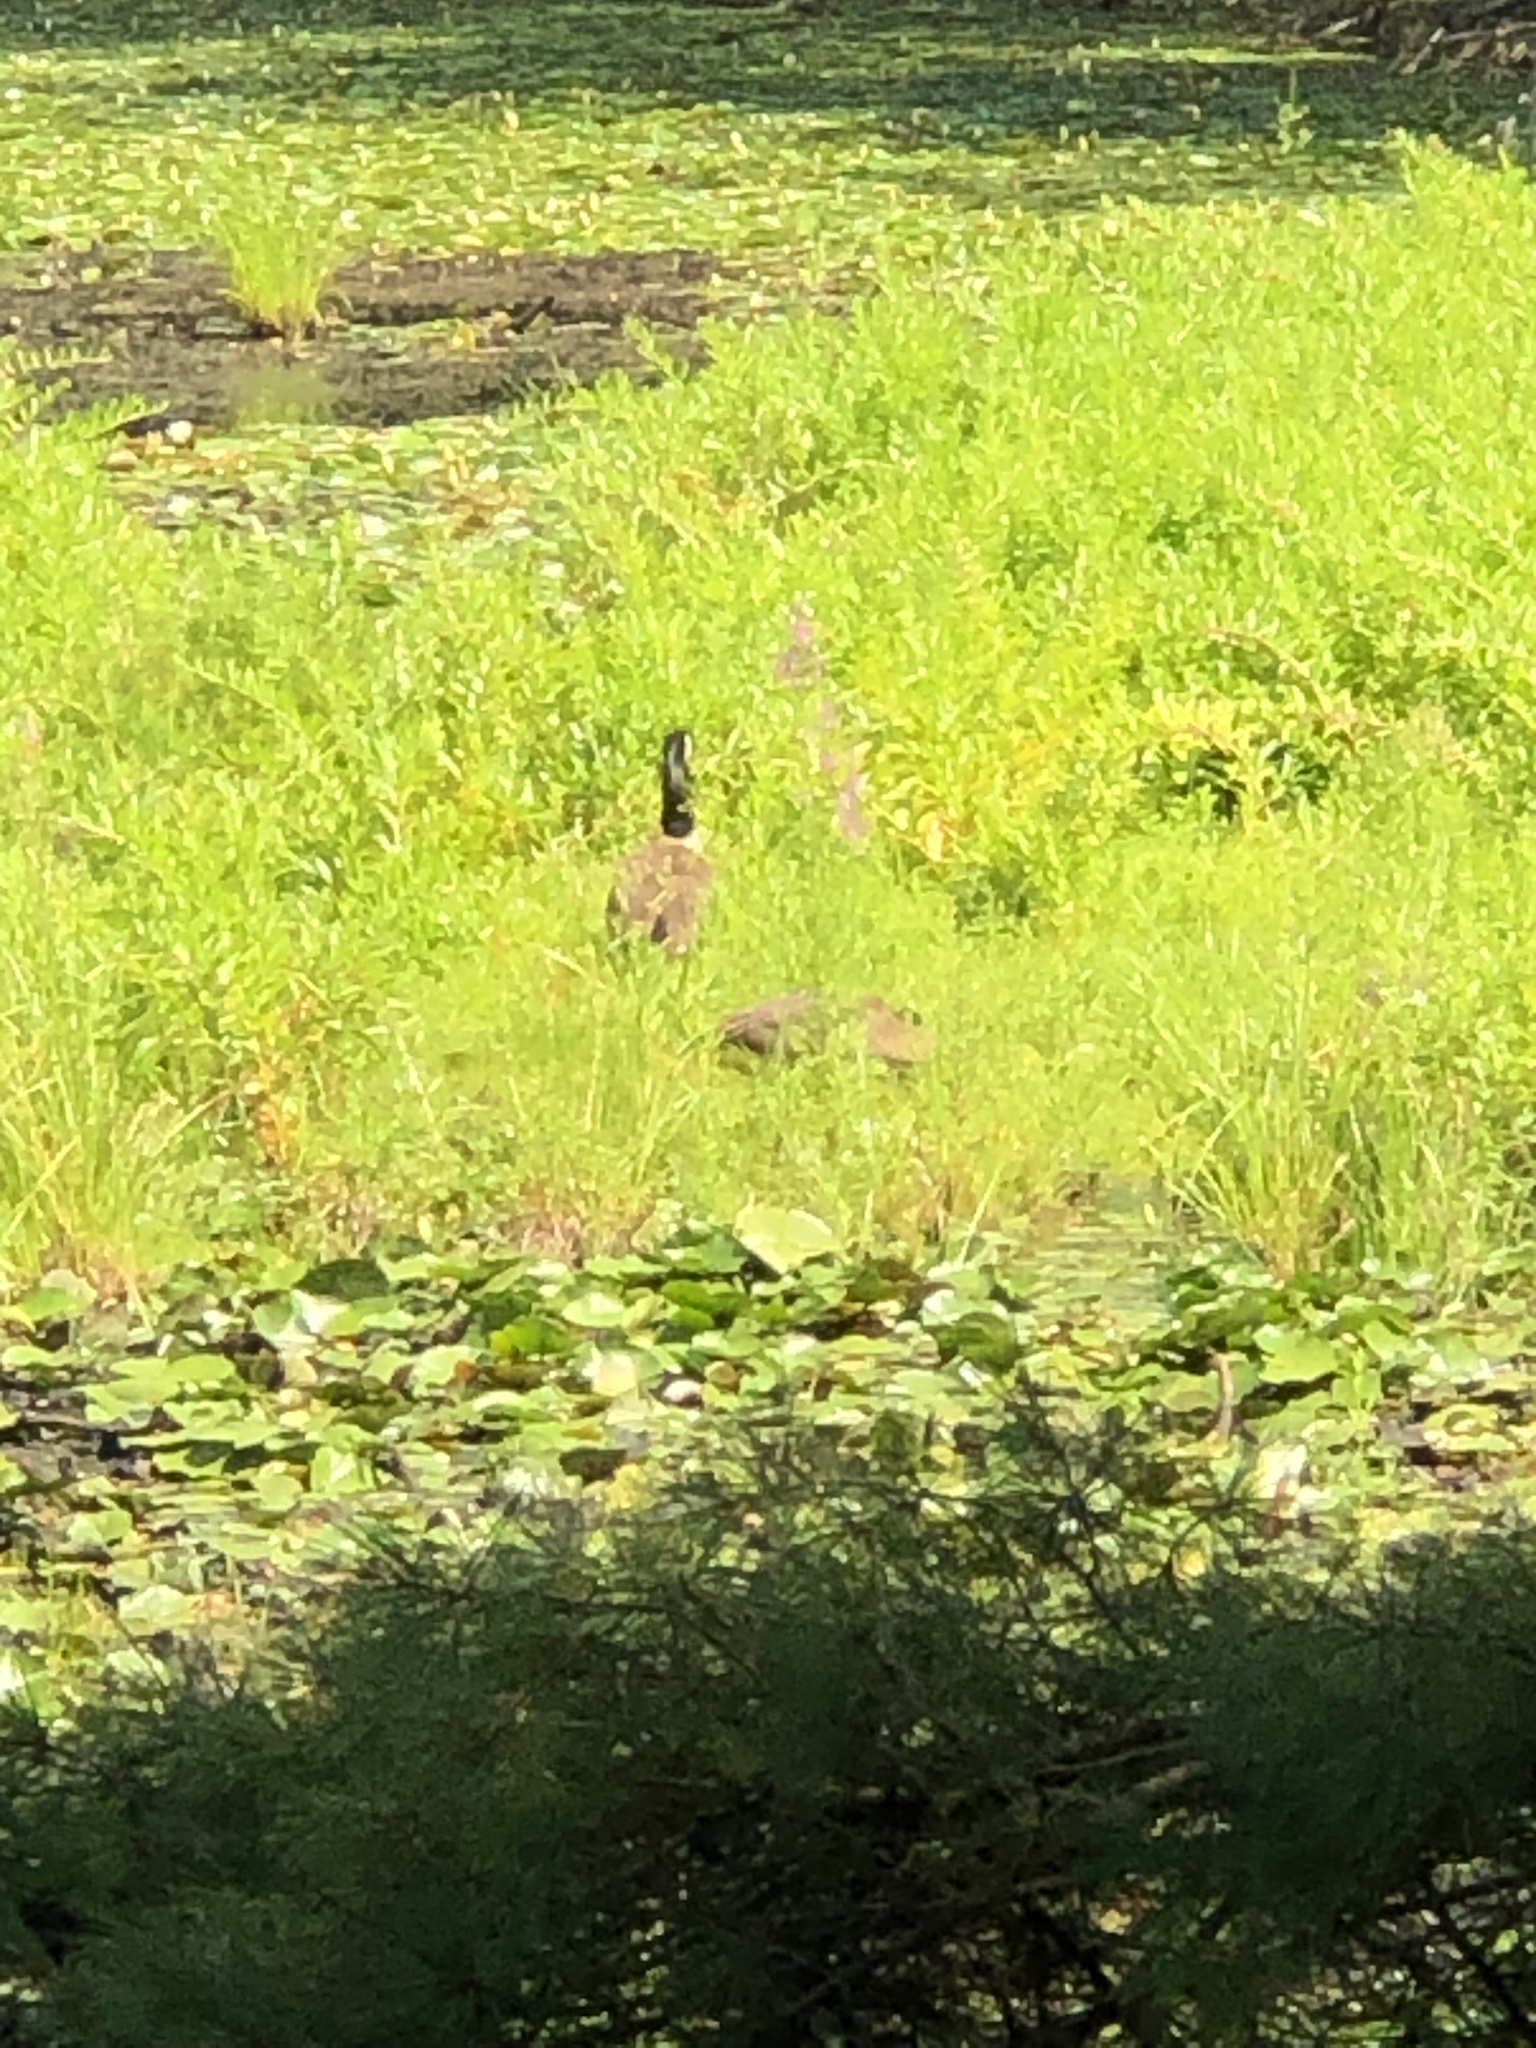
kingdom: Animalia
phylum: Chordata
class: Aves
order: Anseriformes
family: Anatidae
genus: Branta
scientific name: Branta canadensis
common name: Canada goose
